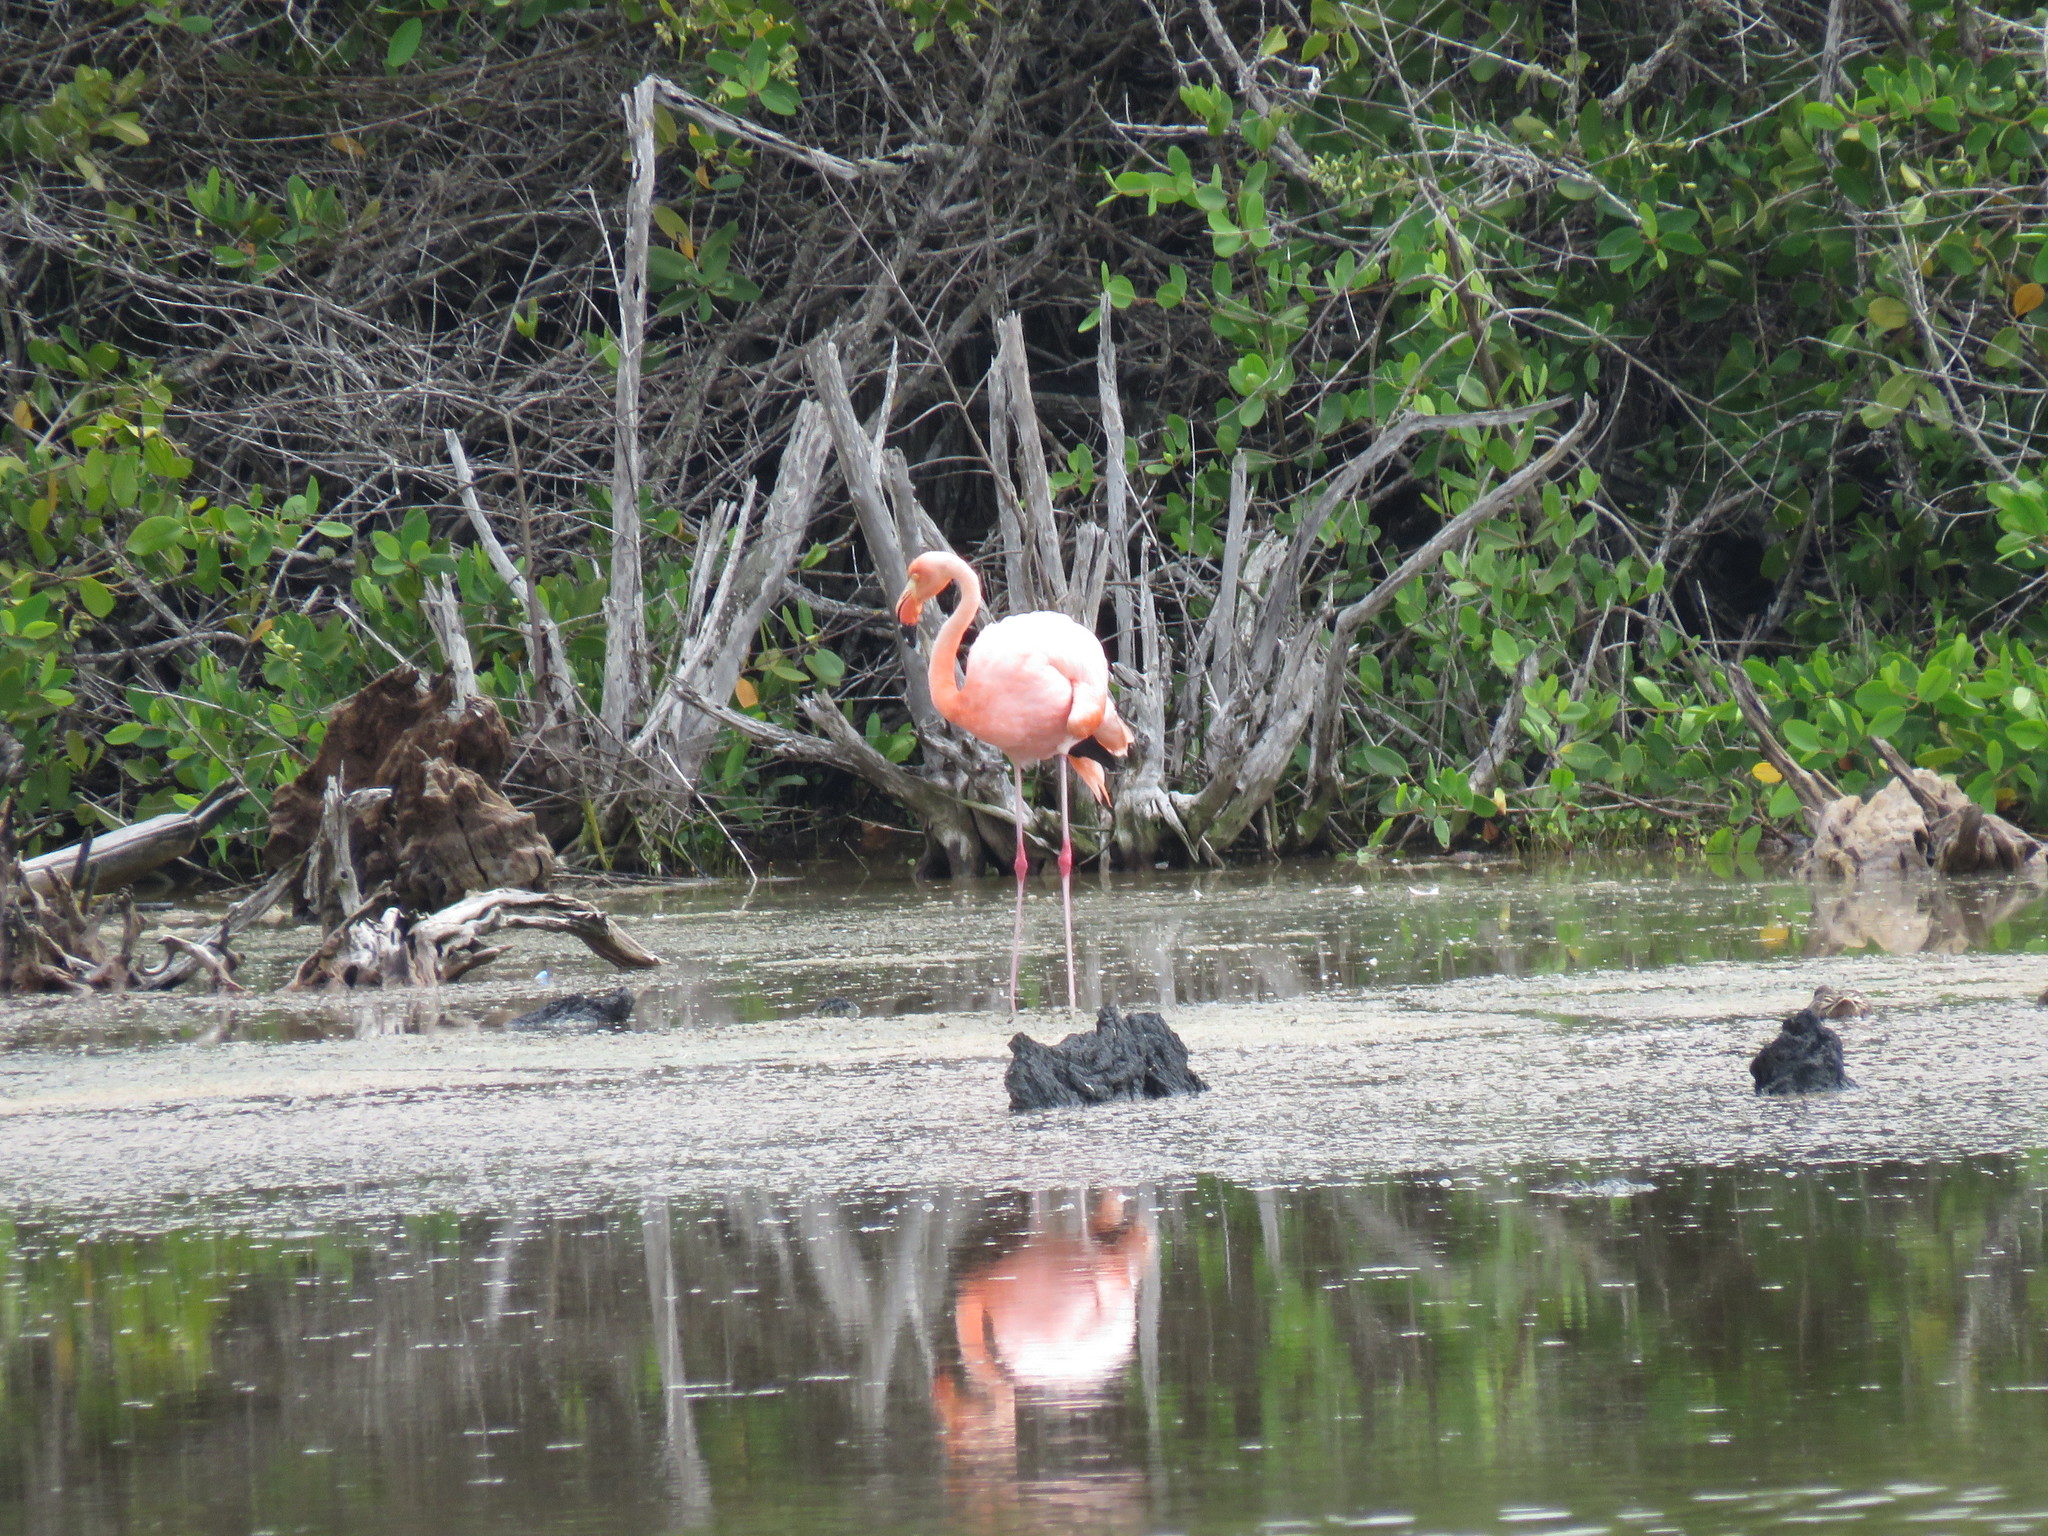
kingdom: Animalia
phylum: Chordata
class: Aves
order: Phoenicopteriformes
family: Phoenicopteridae
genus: Phoenicopterus
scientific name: Phoenicopterus ruber
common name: American flamingo
